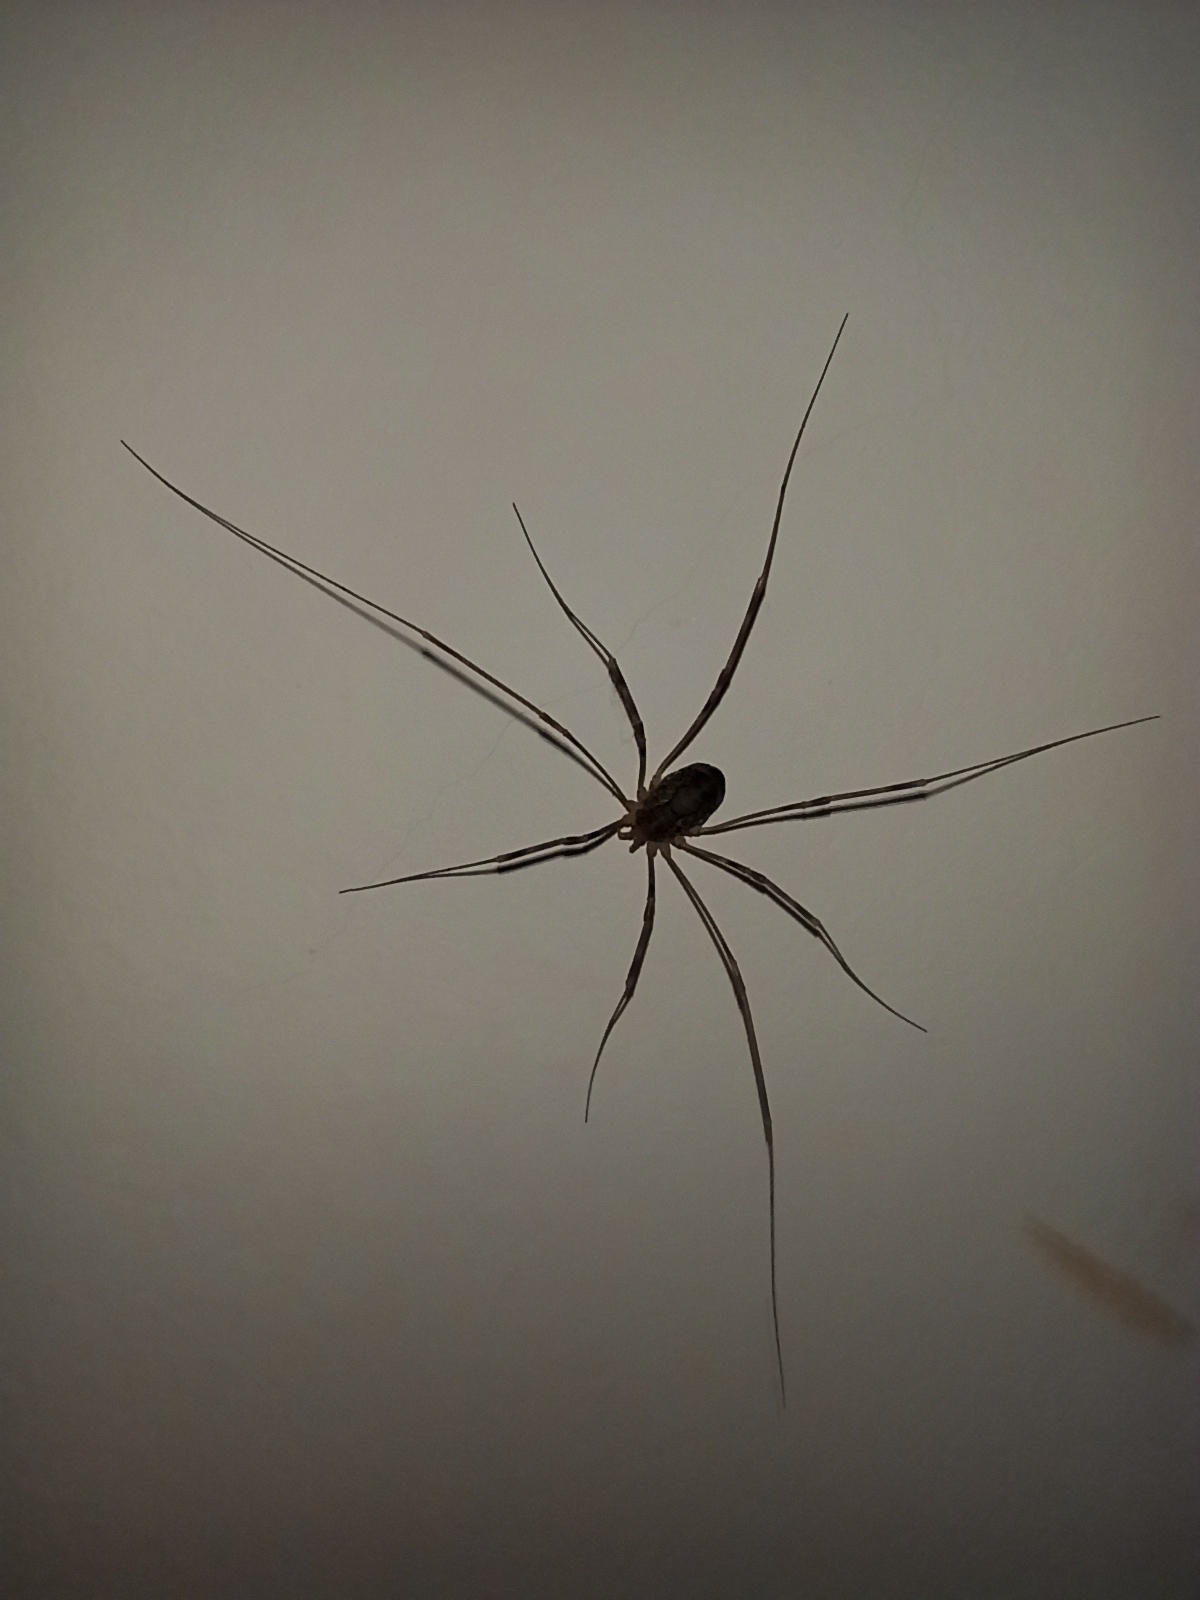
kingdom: Animalia
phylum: Arthropoda
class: Arachnida
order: Opiliones
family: Phalangiidae
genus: Phalangium
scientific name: Phalangium opilio
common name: Daddy longleg
